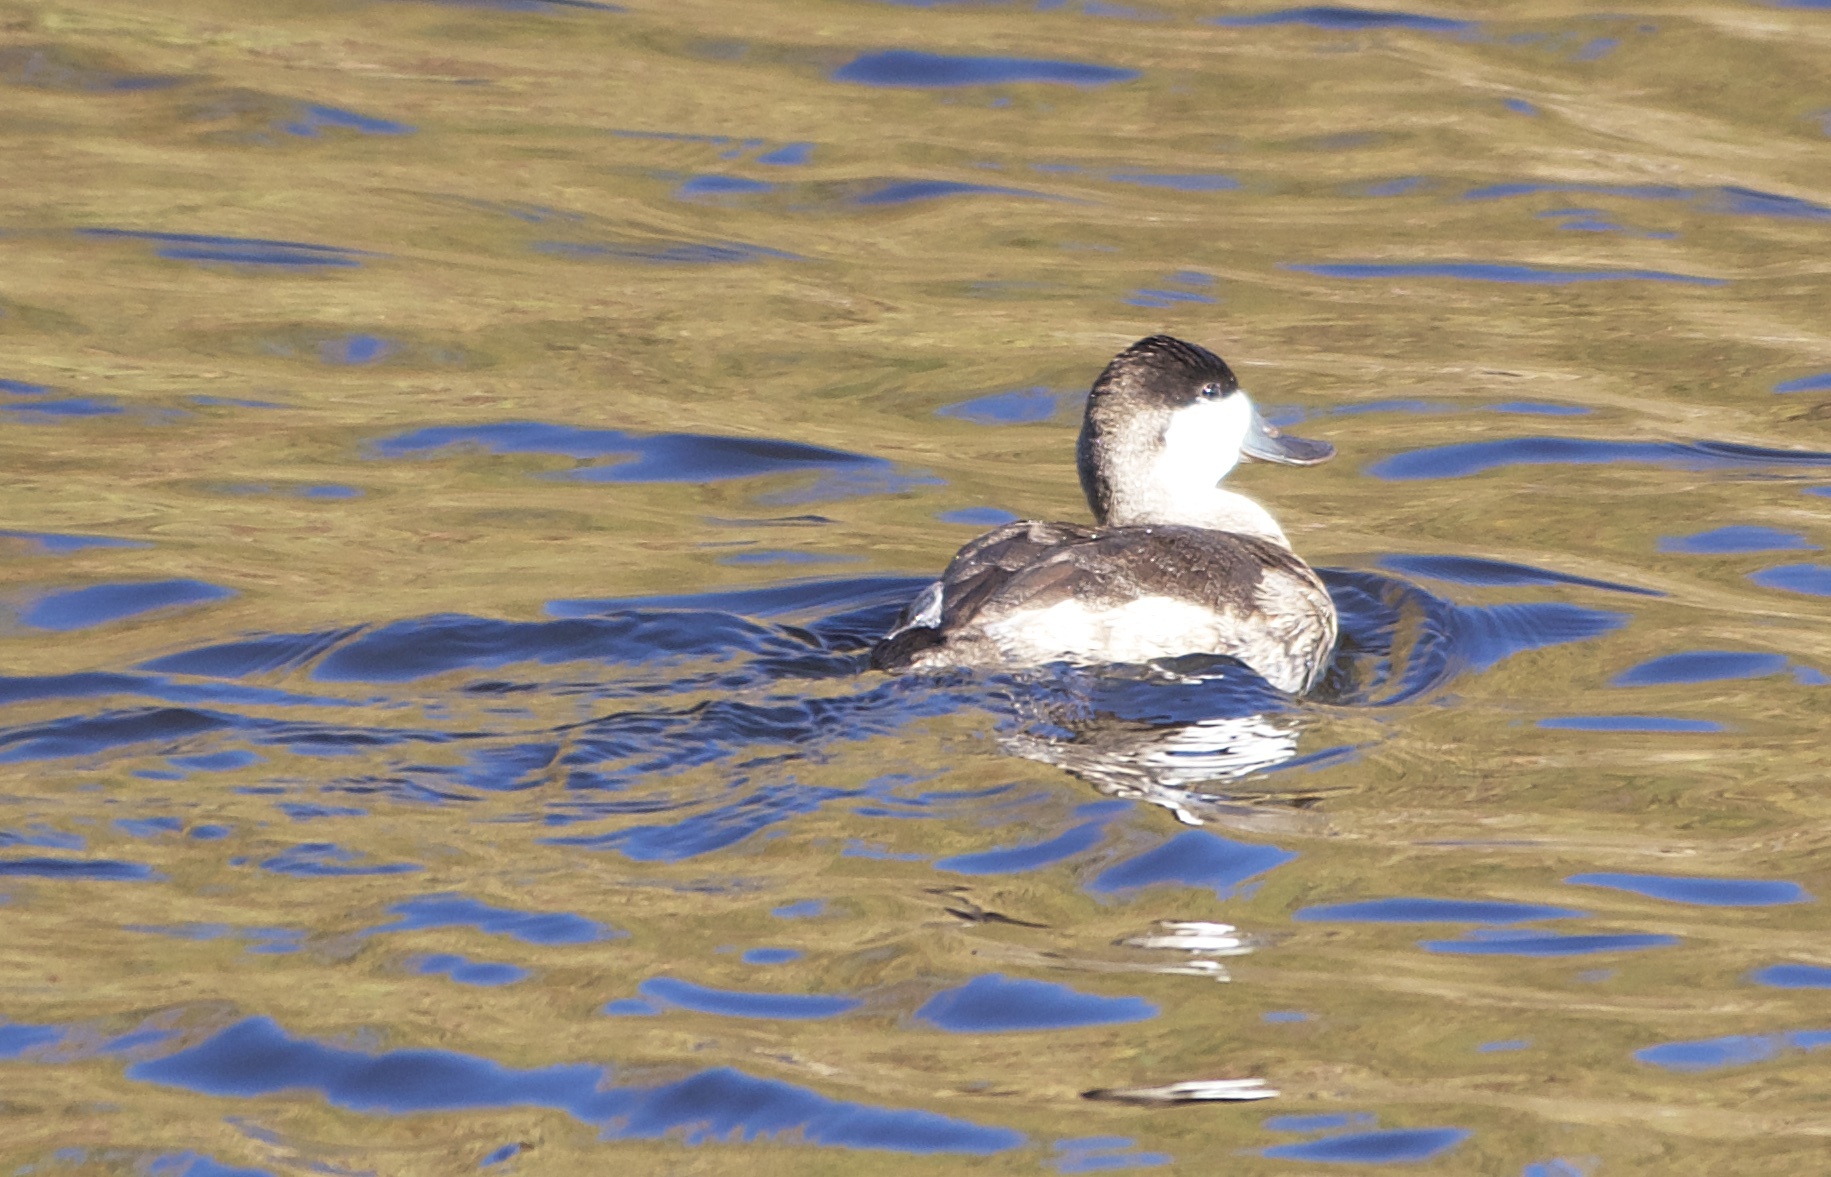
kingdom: Animalia
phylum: Chordata
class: Aves
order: Anseriformes
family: Anatidae
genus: Oxyura
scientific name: Oxyura jamaicensis
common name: Ruddy duck
